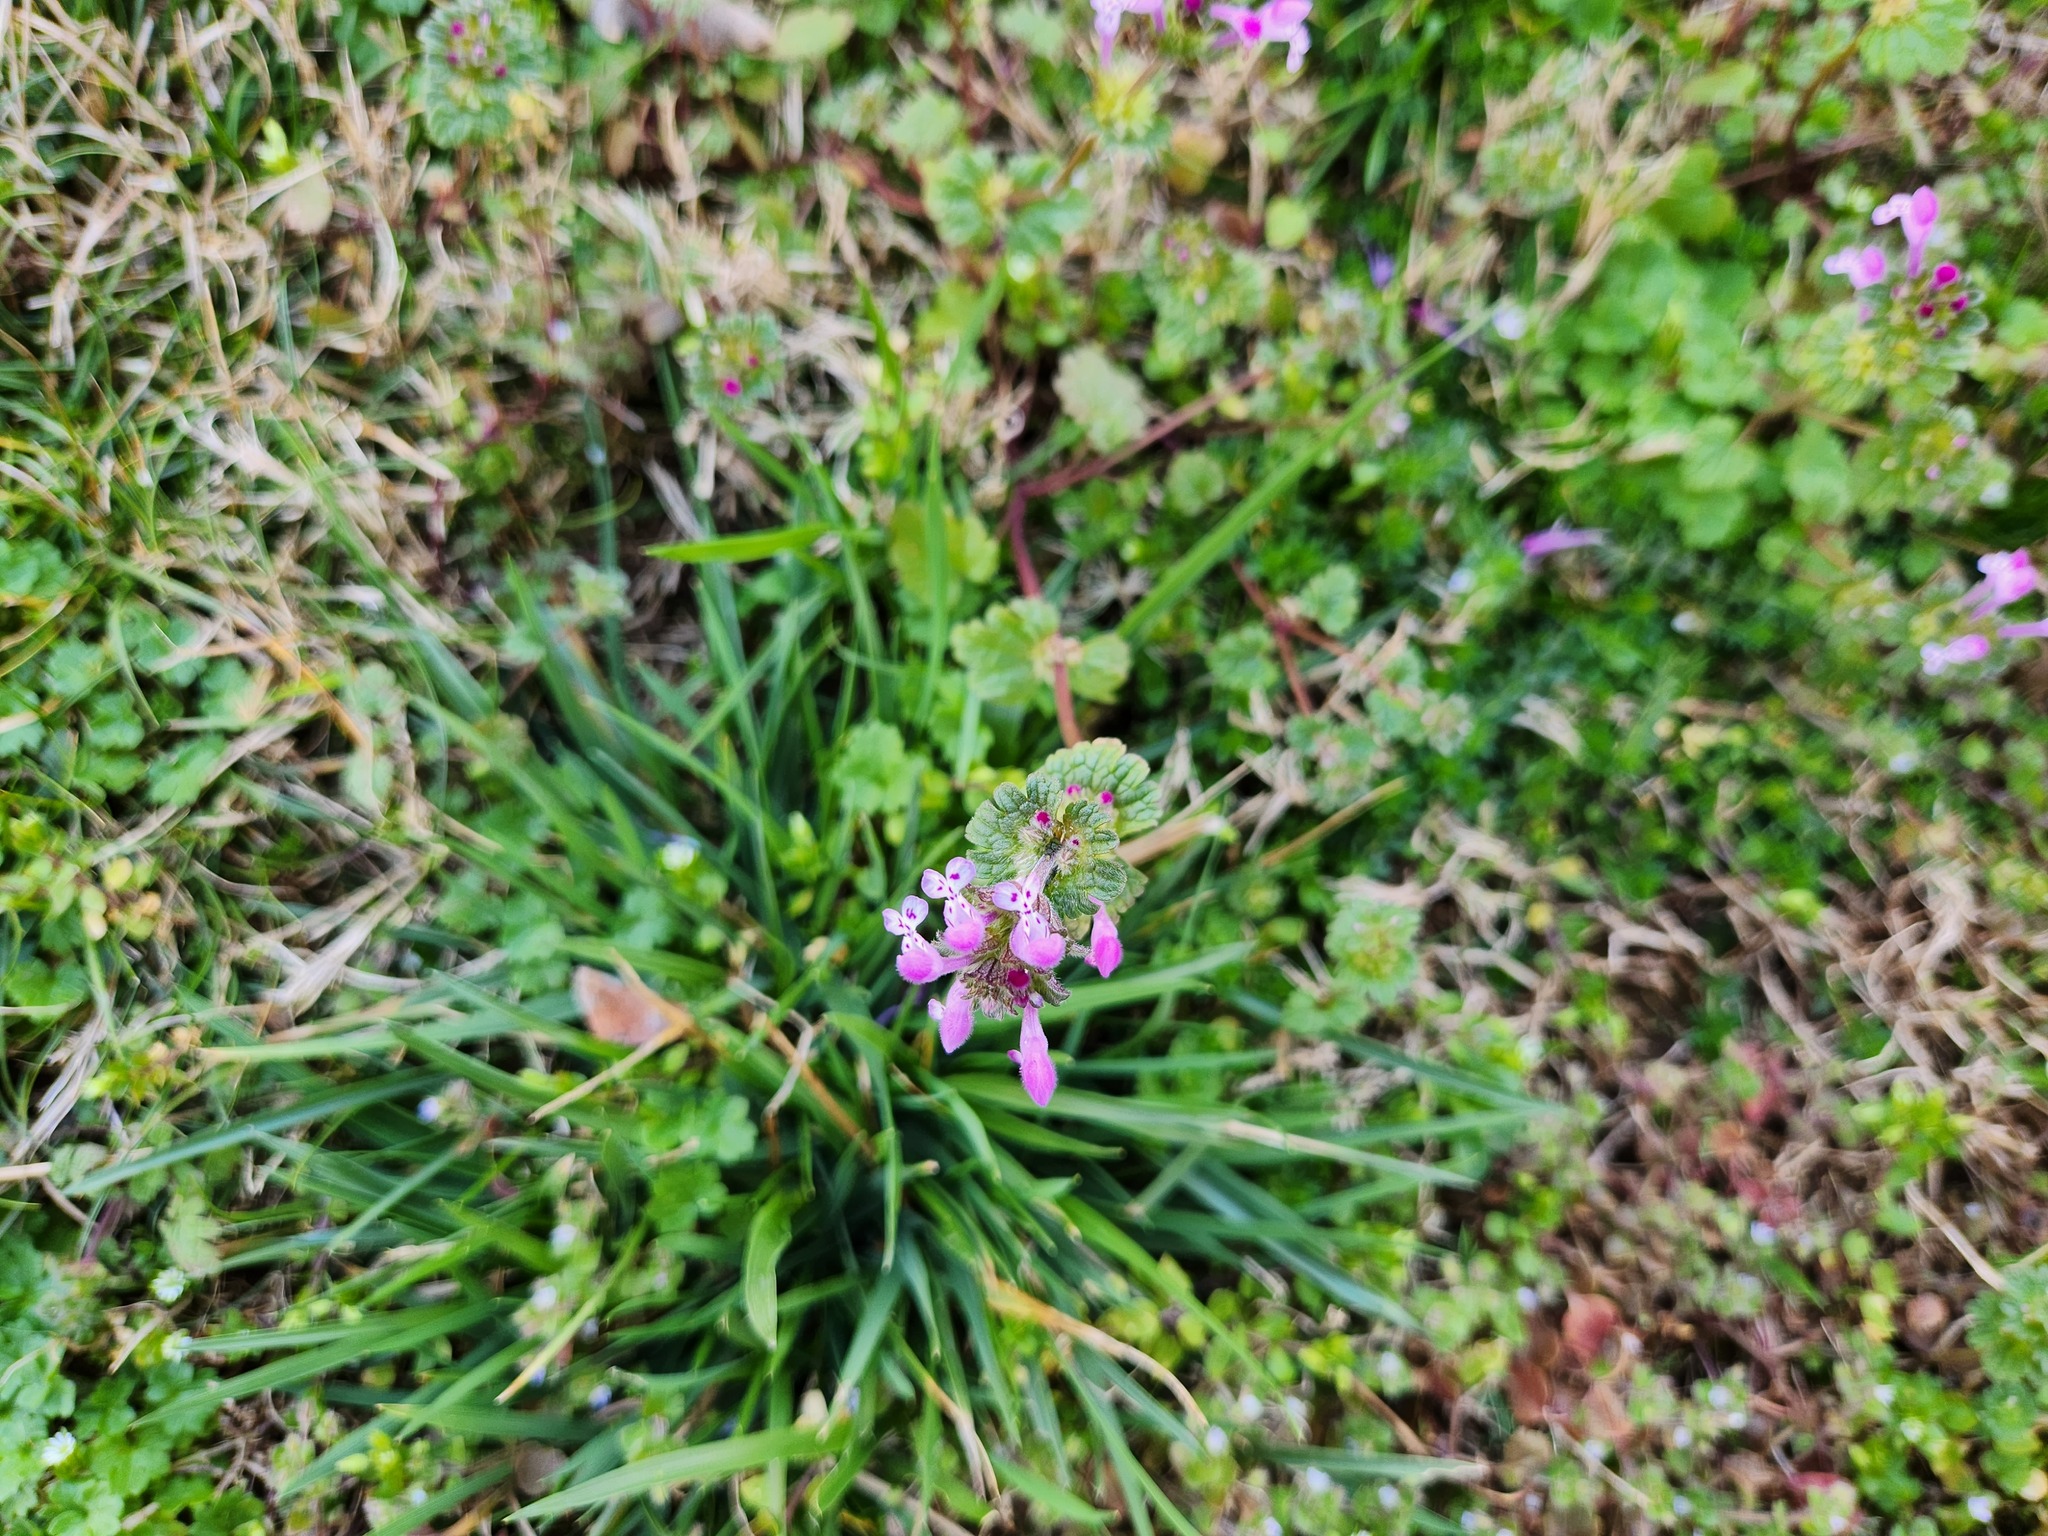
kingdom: Plantae
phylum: Tracheophyta
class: Magnoliopsida
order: Lamiales
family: Lamiaceae
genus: Lamium
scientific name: Lamium amplexicaule
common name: Henbit dead-nettle
